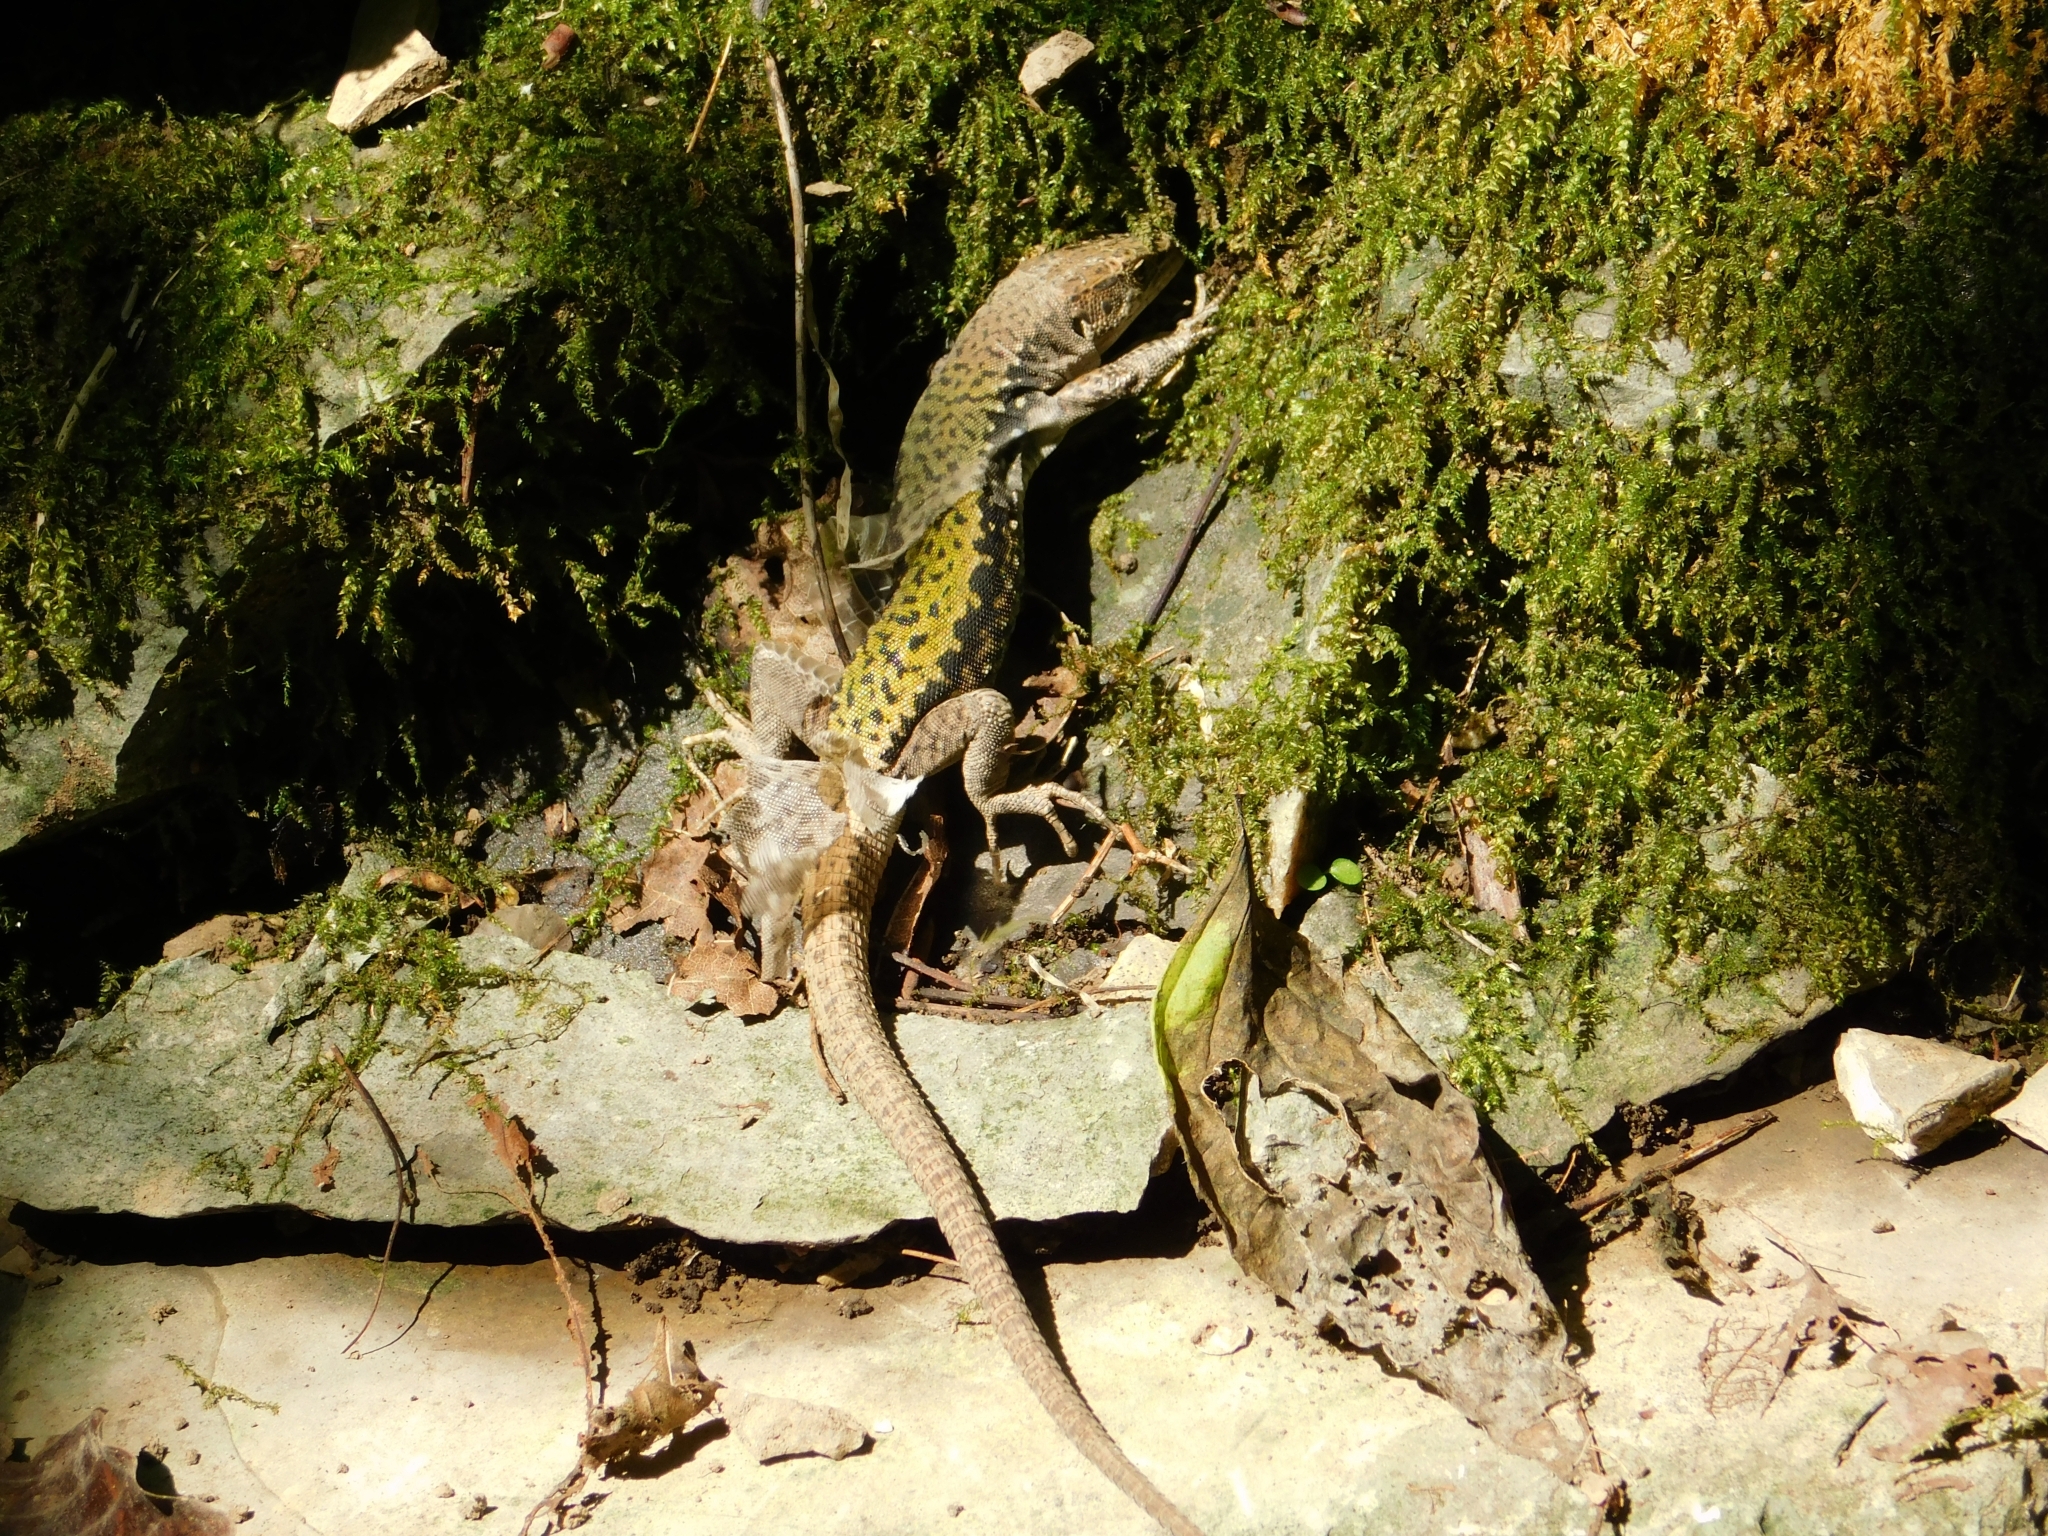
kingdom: Animalia
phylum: Chordata
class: Squamata
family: Lacertidae
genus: Darevskia
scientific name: Darevskia brauneri
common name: Brauner's rock lizard
